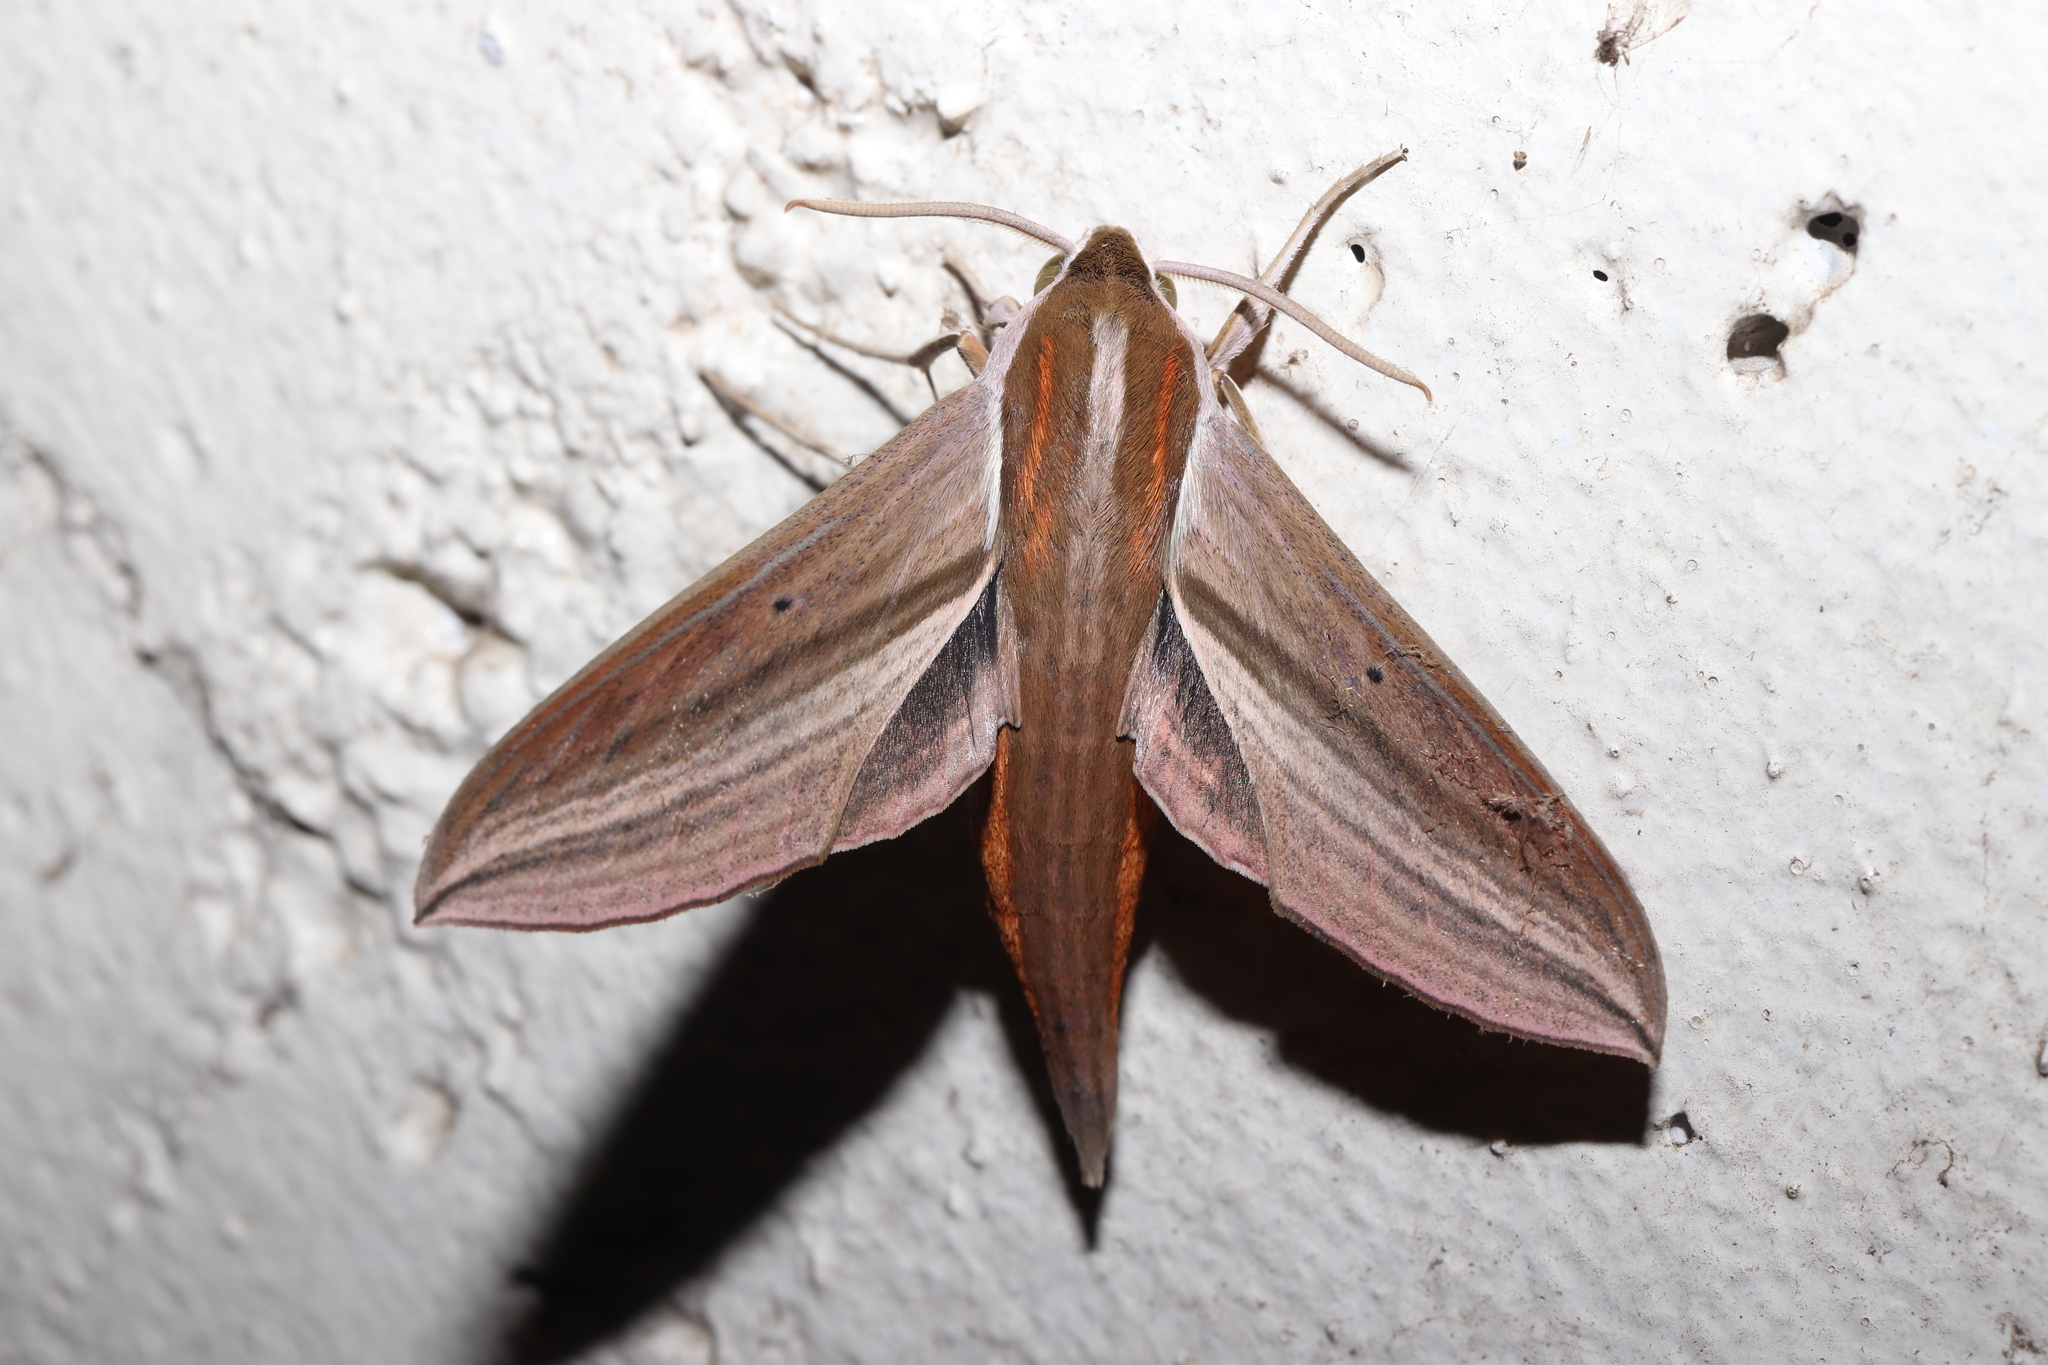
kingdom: Animalia
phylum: Arthropoda
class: Insecta
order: Lepidoptera
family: Sphingidae
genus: Theretra
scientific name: Theretra japonica
